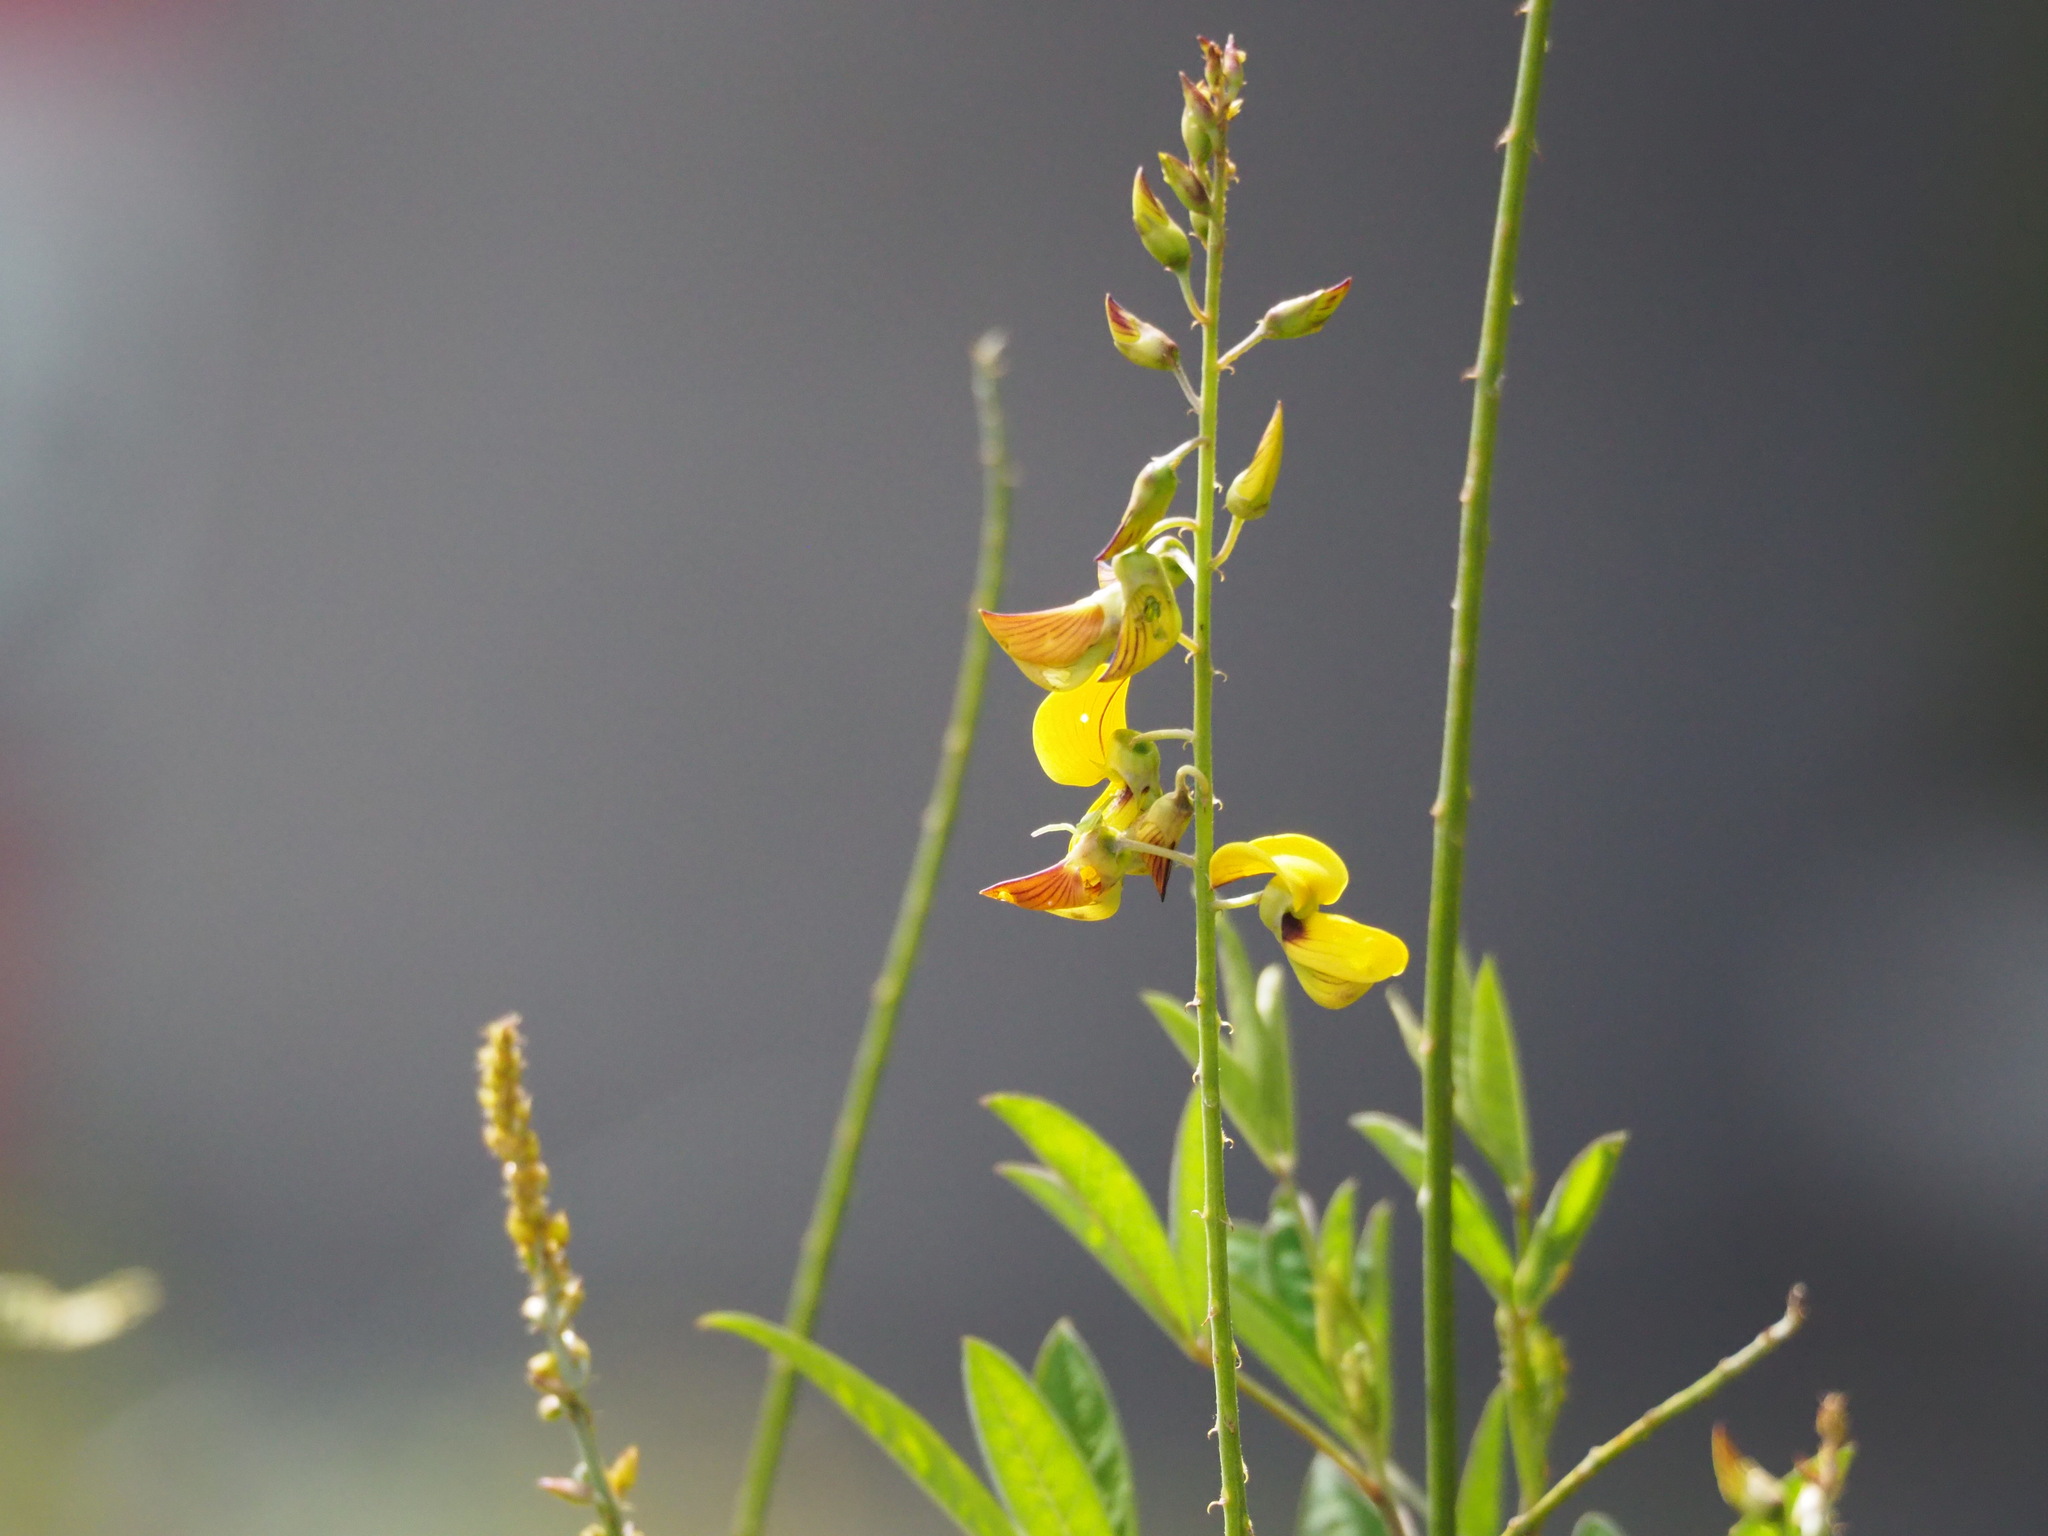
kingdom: Plantae
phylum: Tracheophyta
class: Magnoliopsida
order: Fabales
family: Fabaceae
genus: Crotalaria
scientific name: Crotalaria trichotoma
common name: West indian rattlebox
